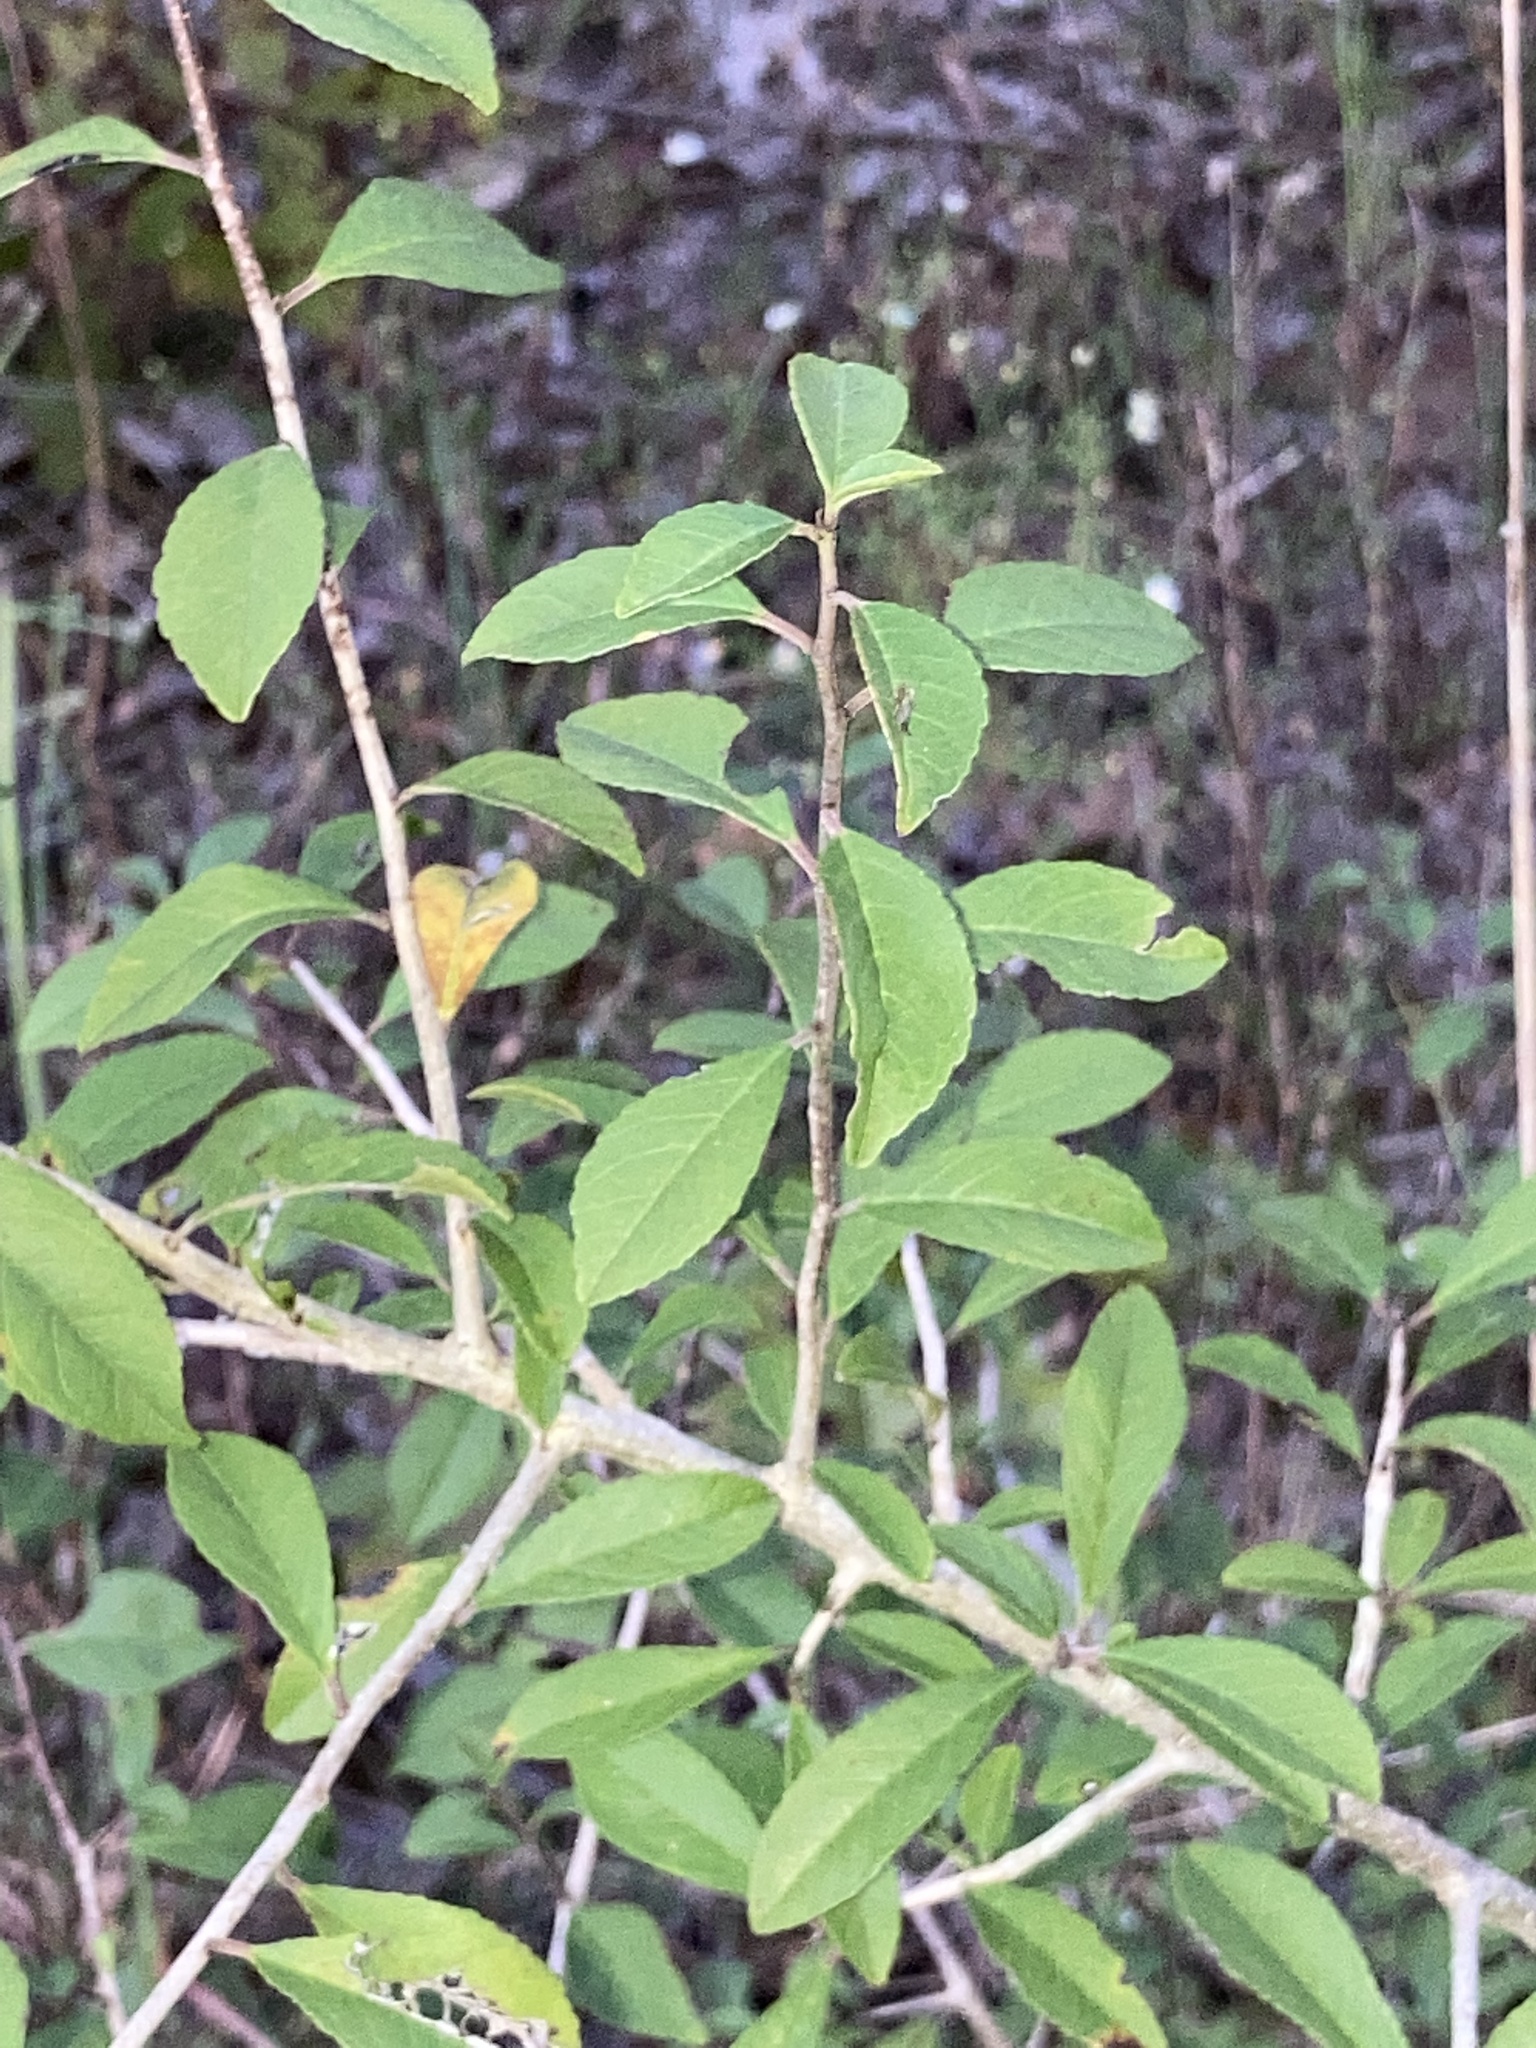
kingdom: Plantae
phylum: Tracheophyta
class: Magnoliopsida
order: Aquifoliales
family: Aquifoliaceae
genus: Ilex
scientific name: Ilex decidua
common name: Possum-haw
